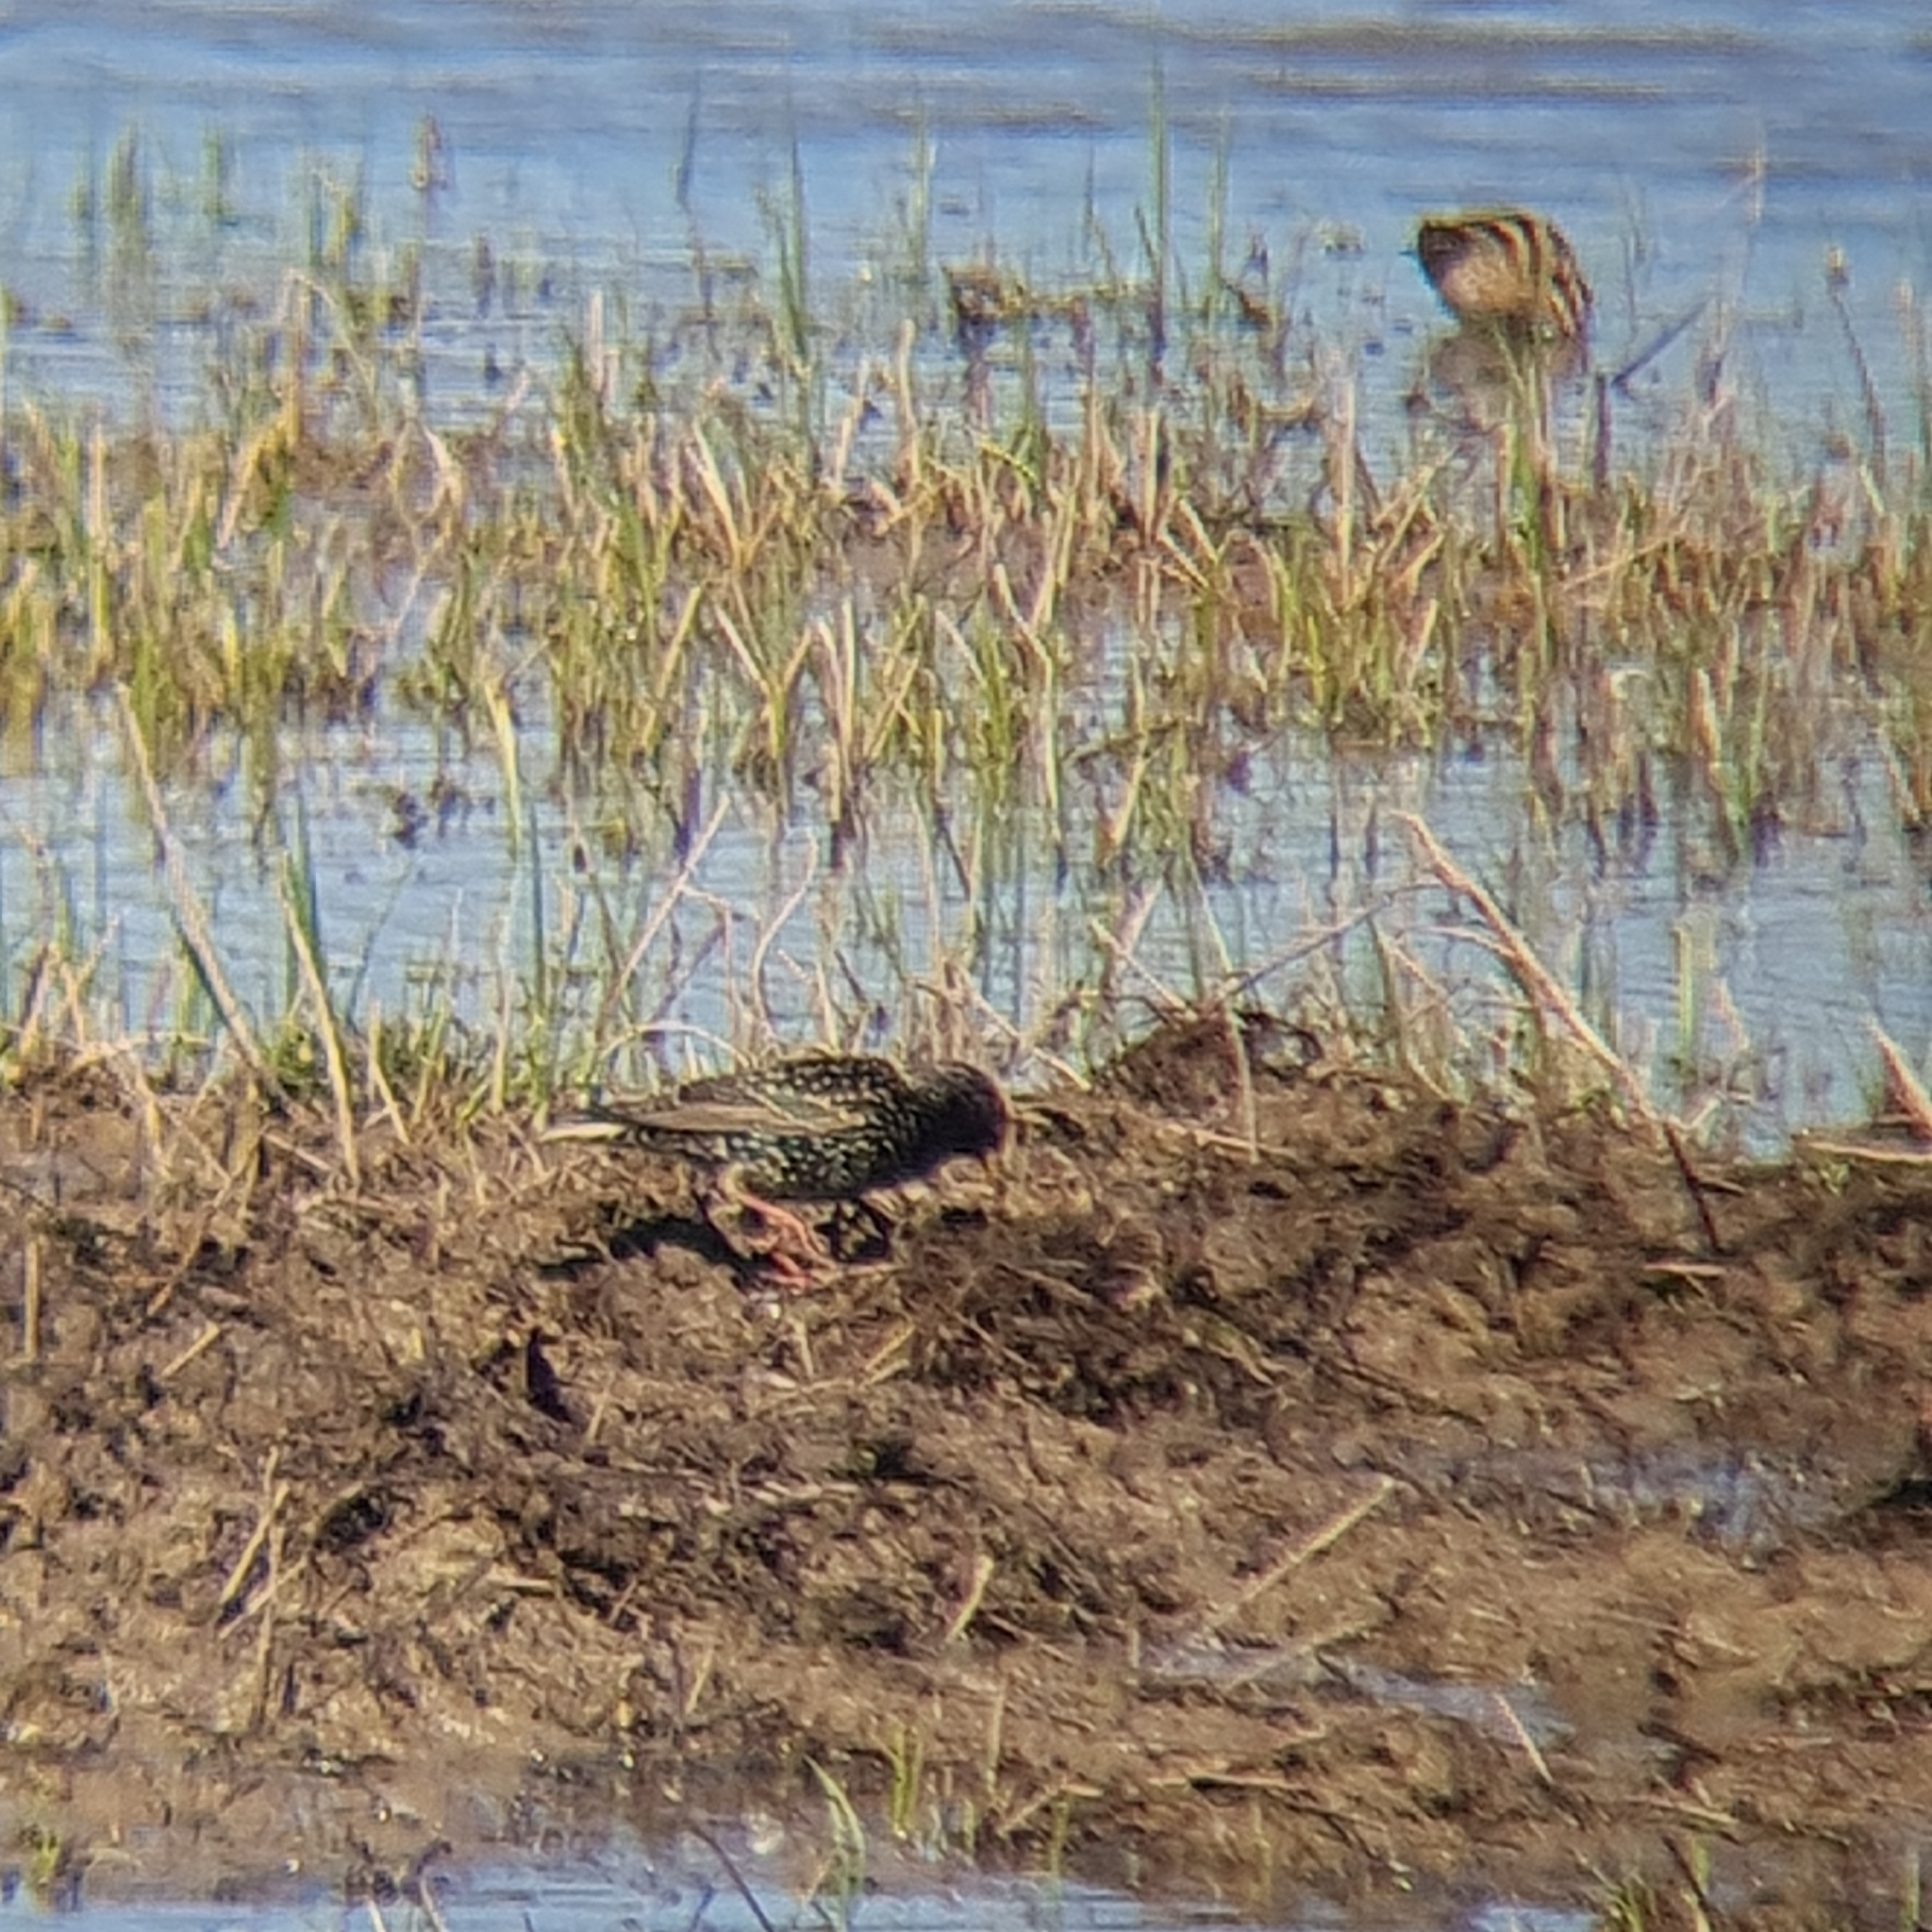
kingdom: Animalia
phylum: Chordata
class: Aves
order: Passeriformes
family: Sturnidae
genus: Sturnus
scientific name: Sturnus vulgaris
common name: Common starling
